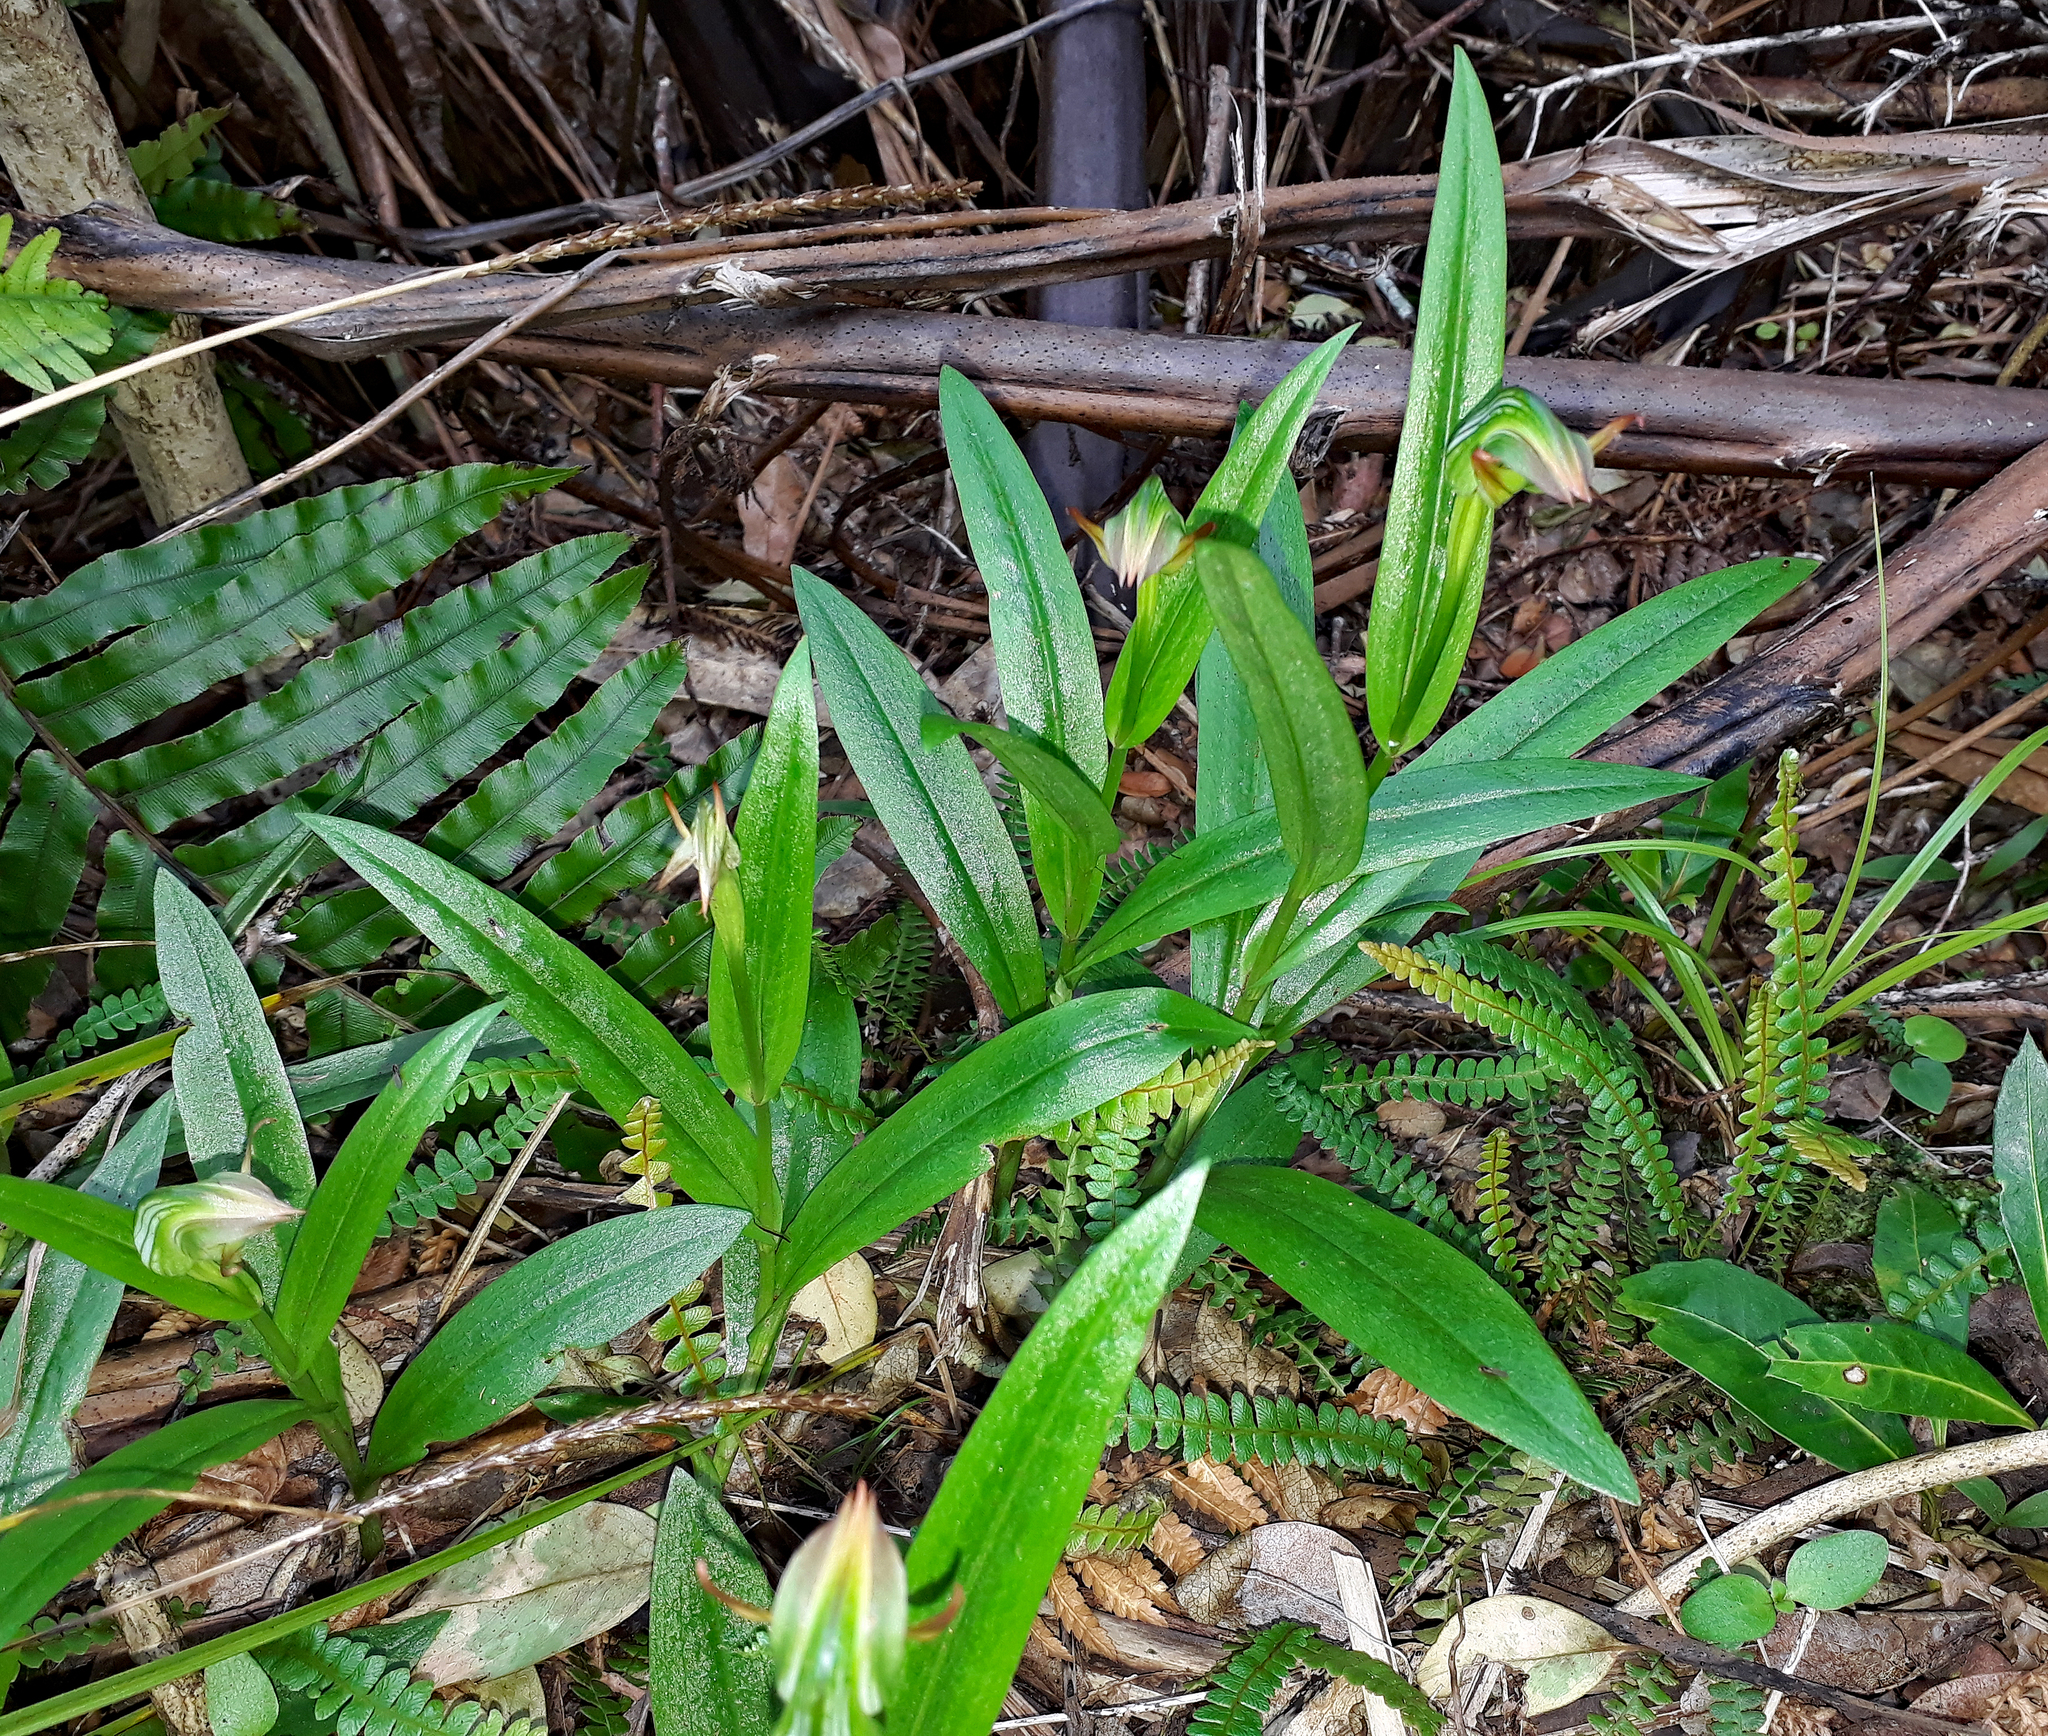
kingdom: Plantae
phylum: Tracheophyta
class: Liliopsida
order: Asparagales
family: Orchidaceae
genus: Pterostylis
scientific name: Pterostylis silvicultrix
